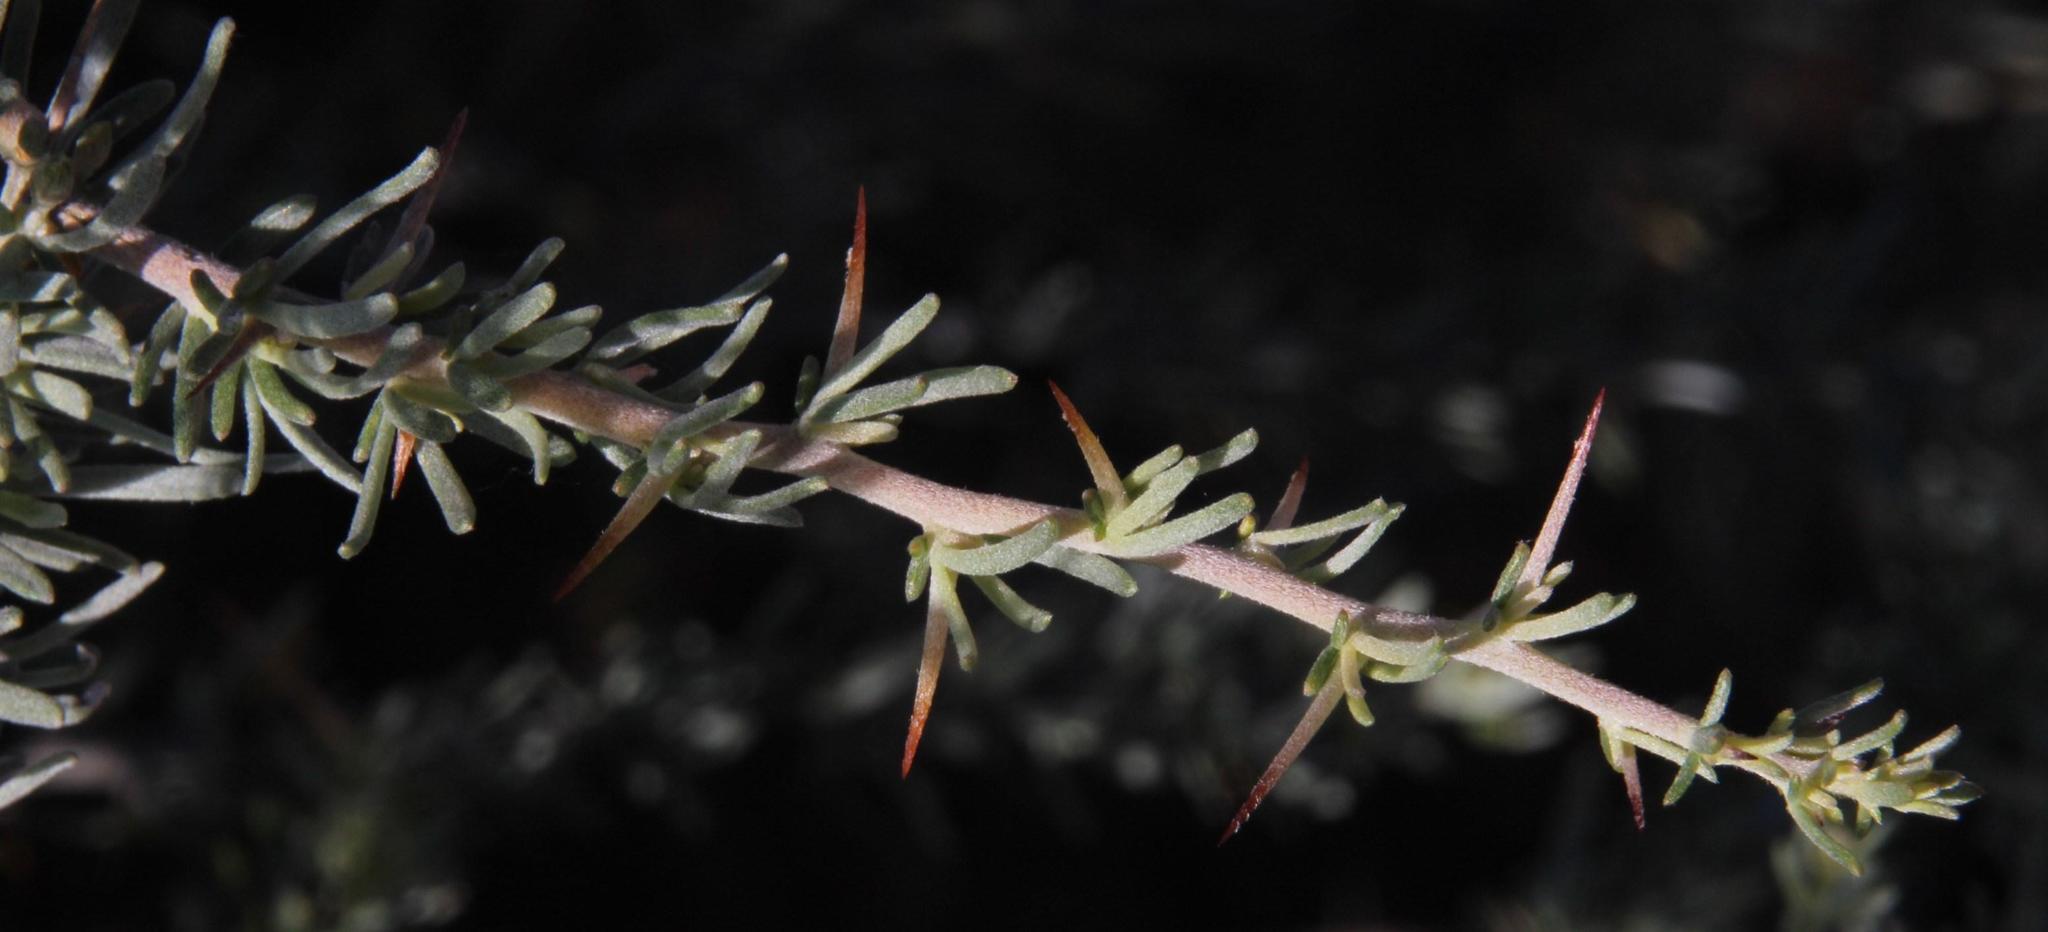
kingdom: Plantae
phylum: Tracheophyta
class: Magnoliopsida
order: Fabales
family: Fabaceae
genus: Aspalathus
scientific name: Aspalathus spinosa
